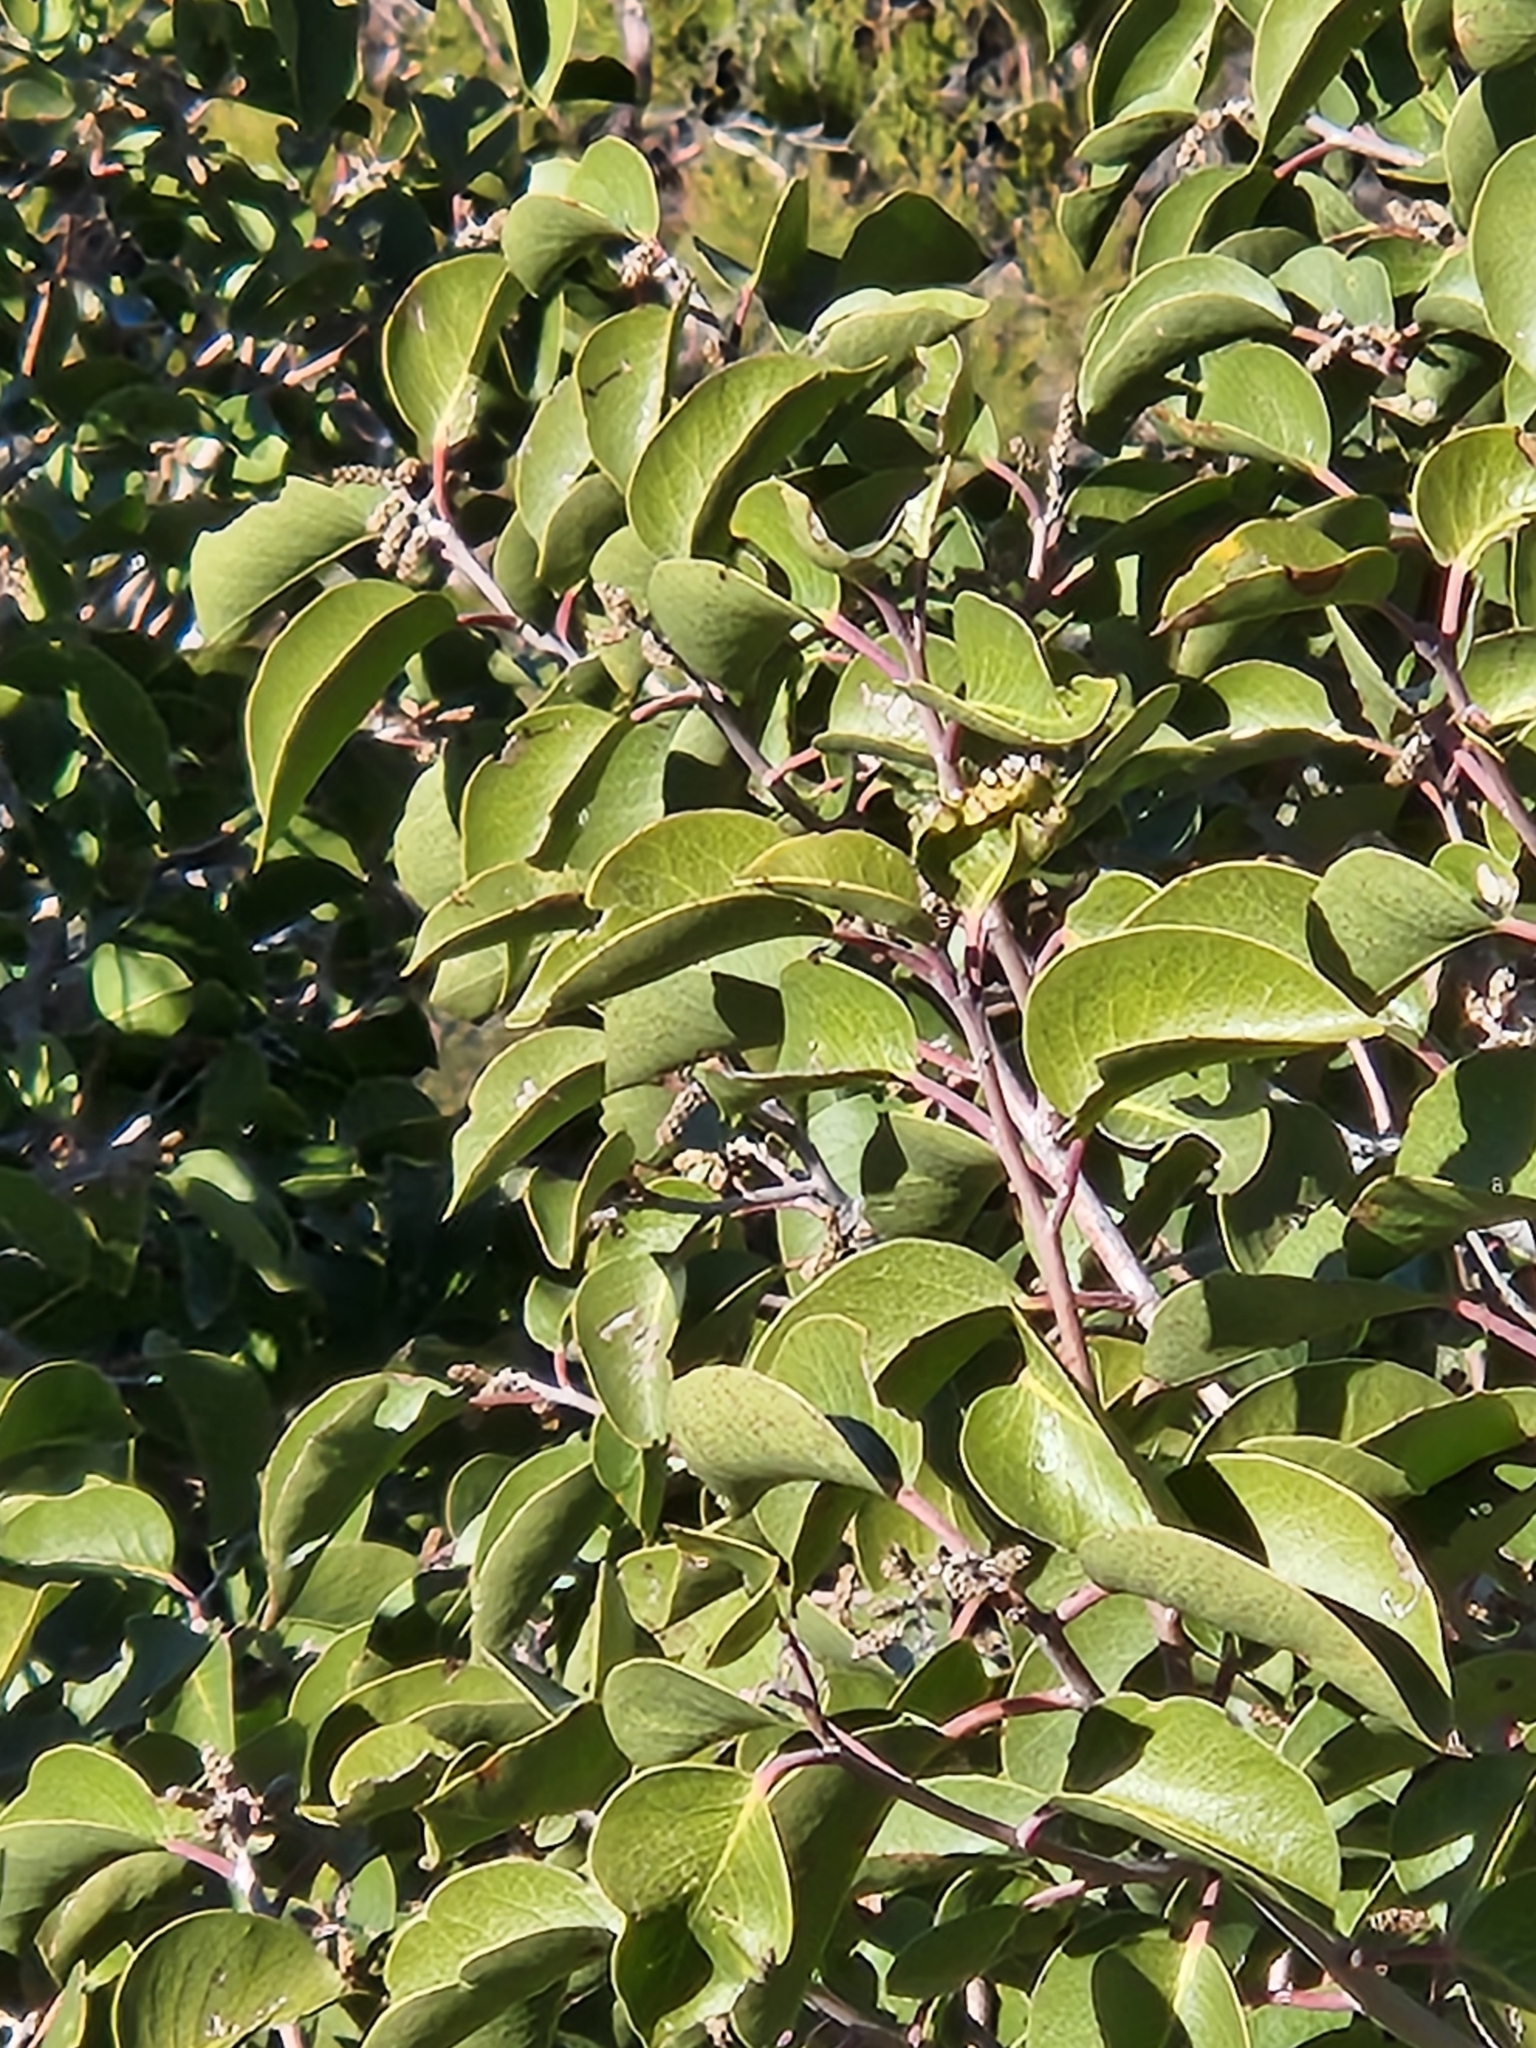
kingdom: Plantae
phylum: Tracheophyta
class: Magnoliopsida
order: Sapindales
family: Anacardiaceae
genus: Rhus
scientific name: Rhus ovata
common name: Sugar sumac
